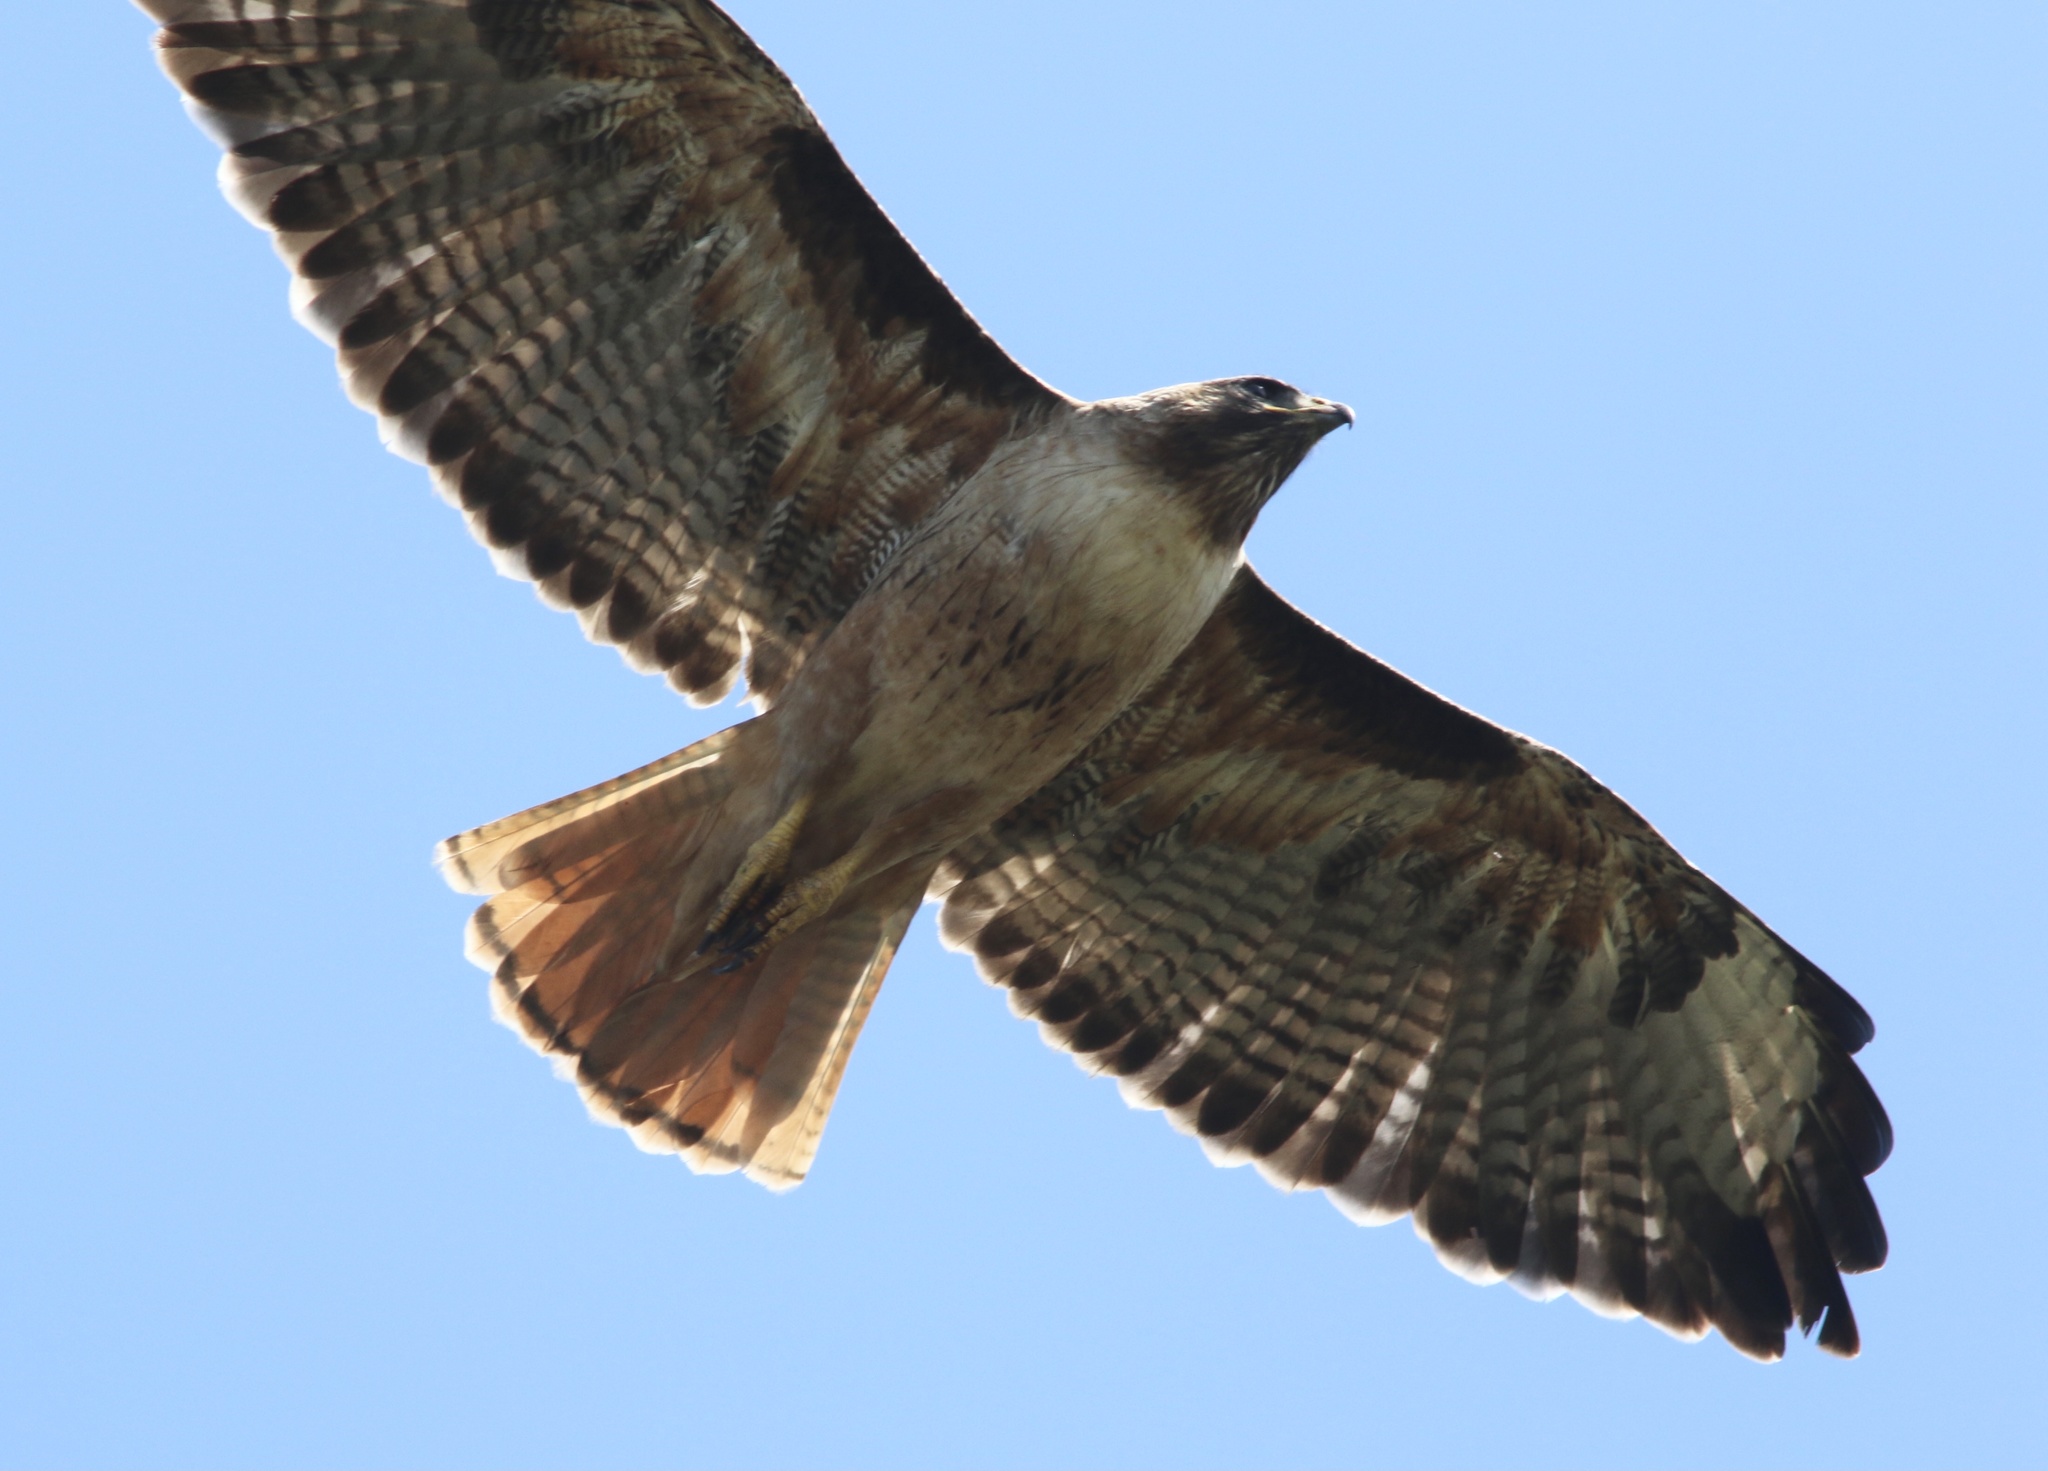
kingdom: Animalia
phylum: Chordata
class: Aves
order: Accipitriformes
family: Accipitridae
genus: Buteo
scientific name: Buteo jamaicensis
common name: Red-tailed hawk
